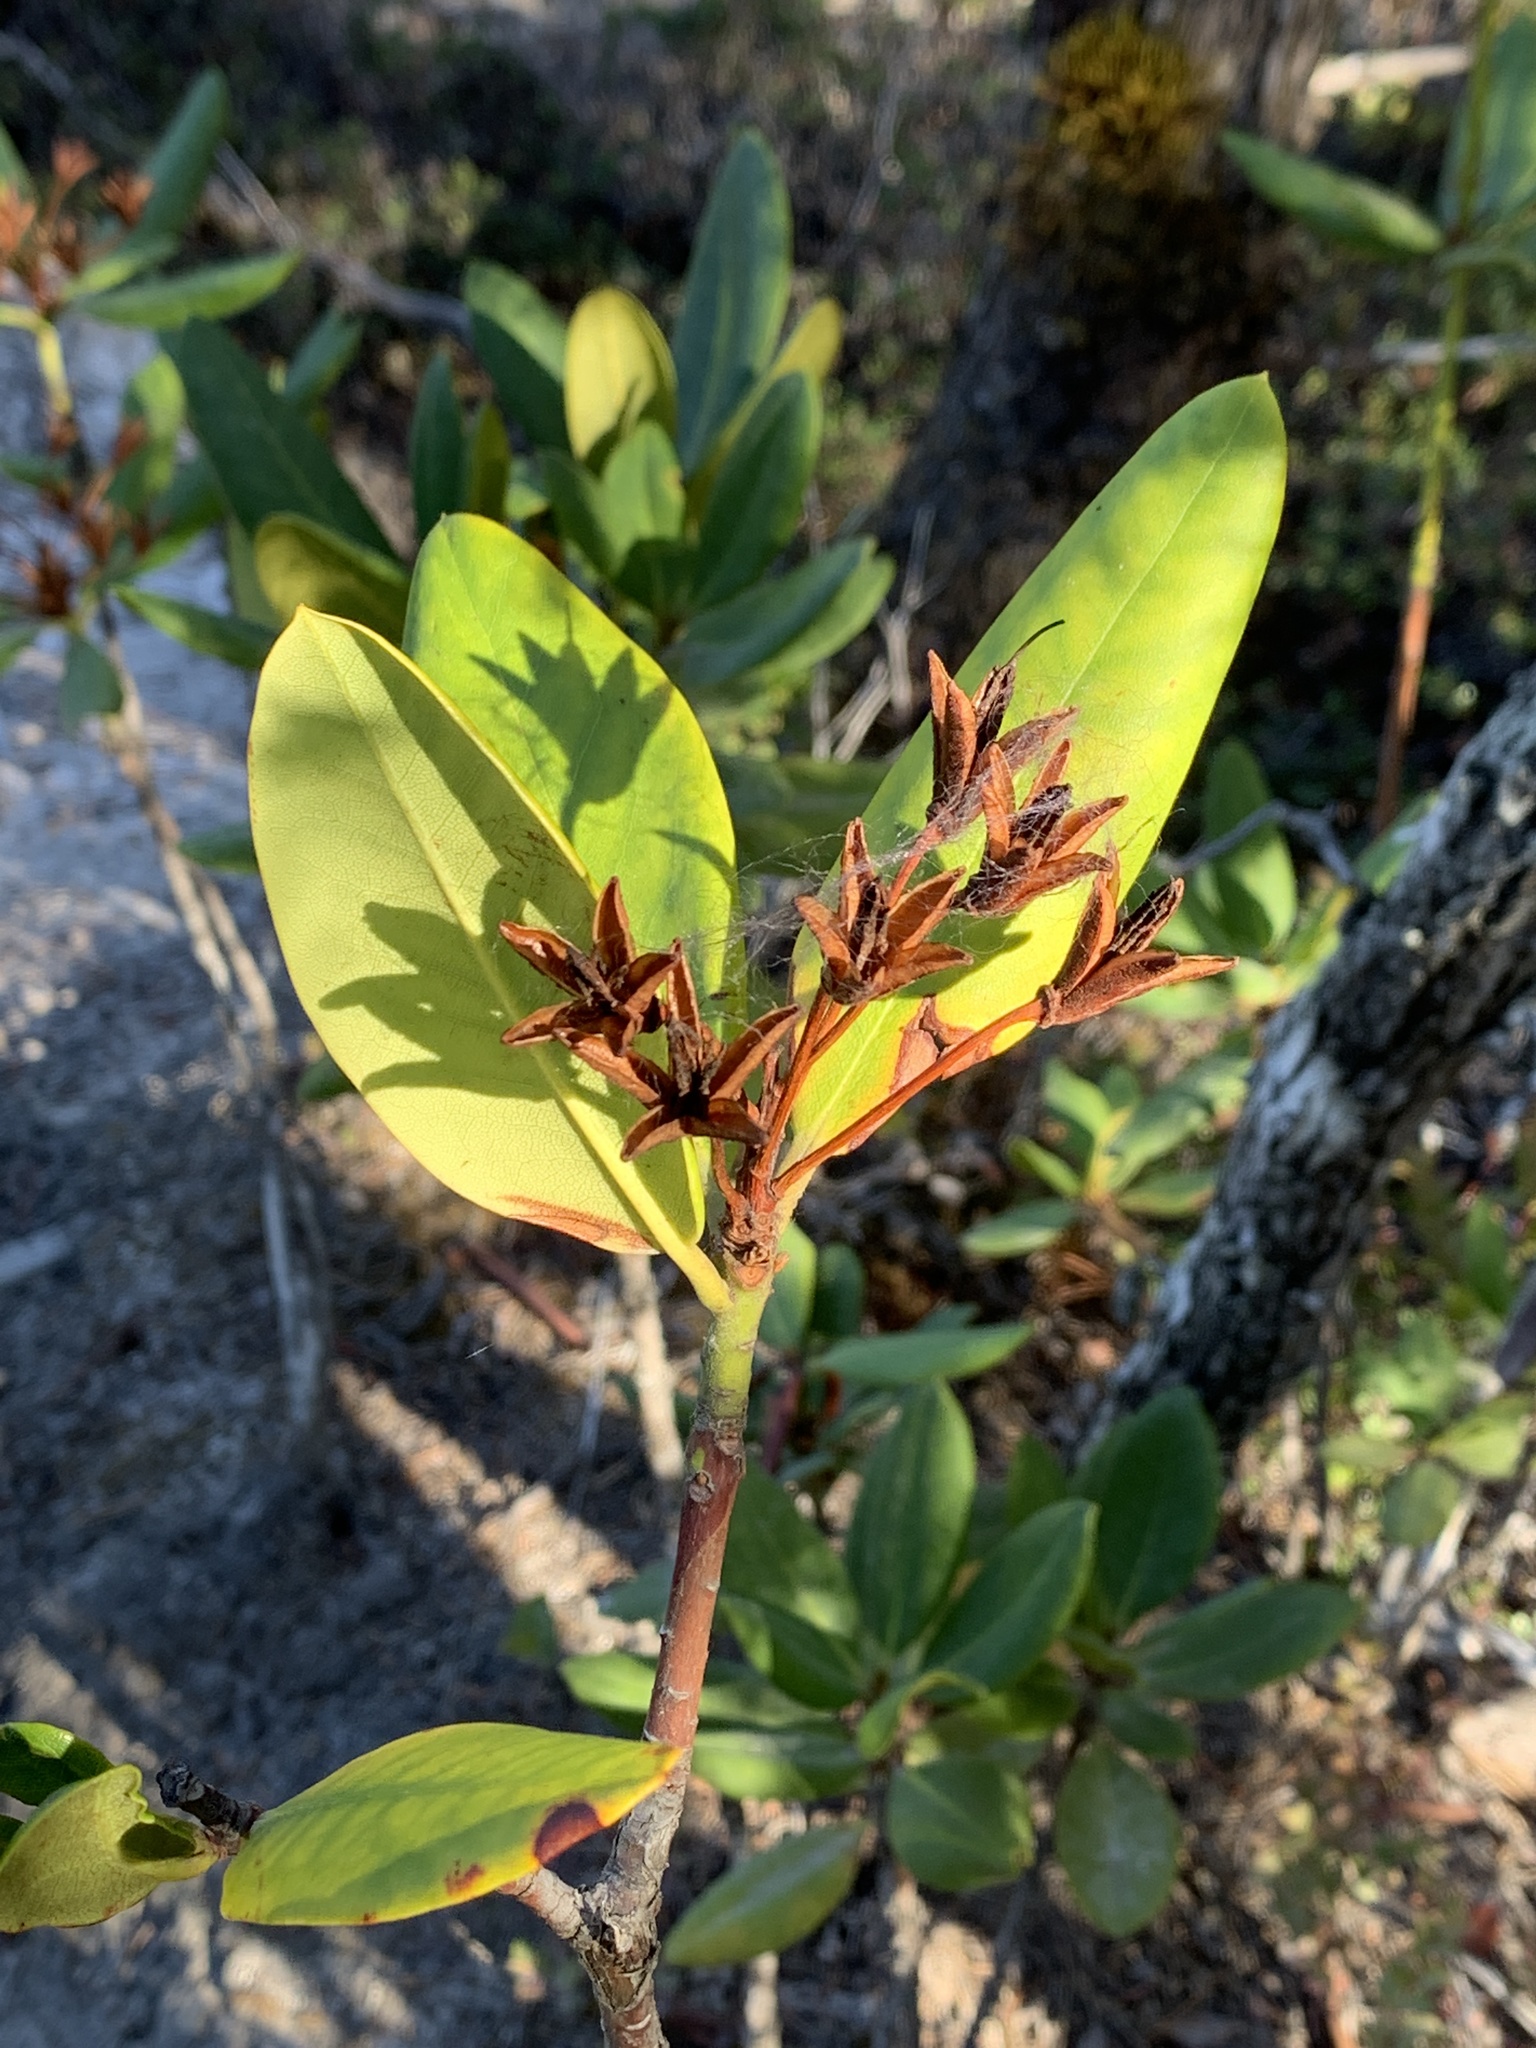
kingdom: Plantae
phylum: Tracheophyta
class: Magnoliopsida
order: Ericales
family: Ericaceae
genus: Rhododendron
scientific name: Rhododendron macrophyllum
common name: California rose bay
